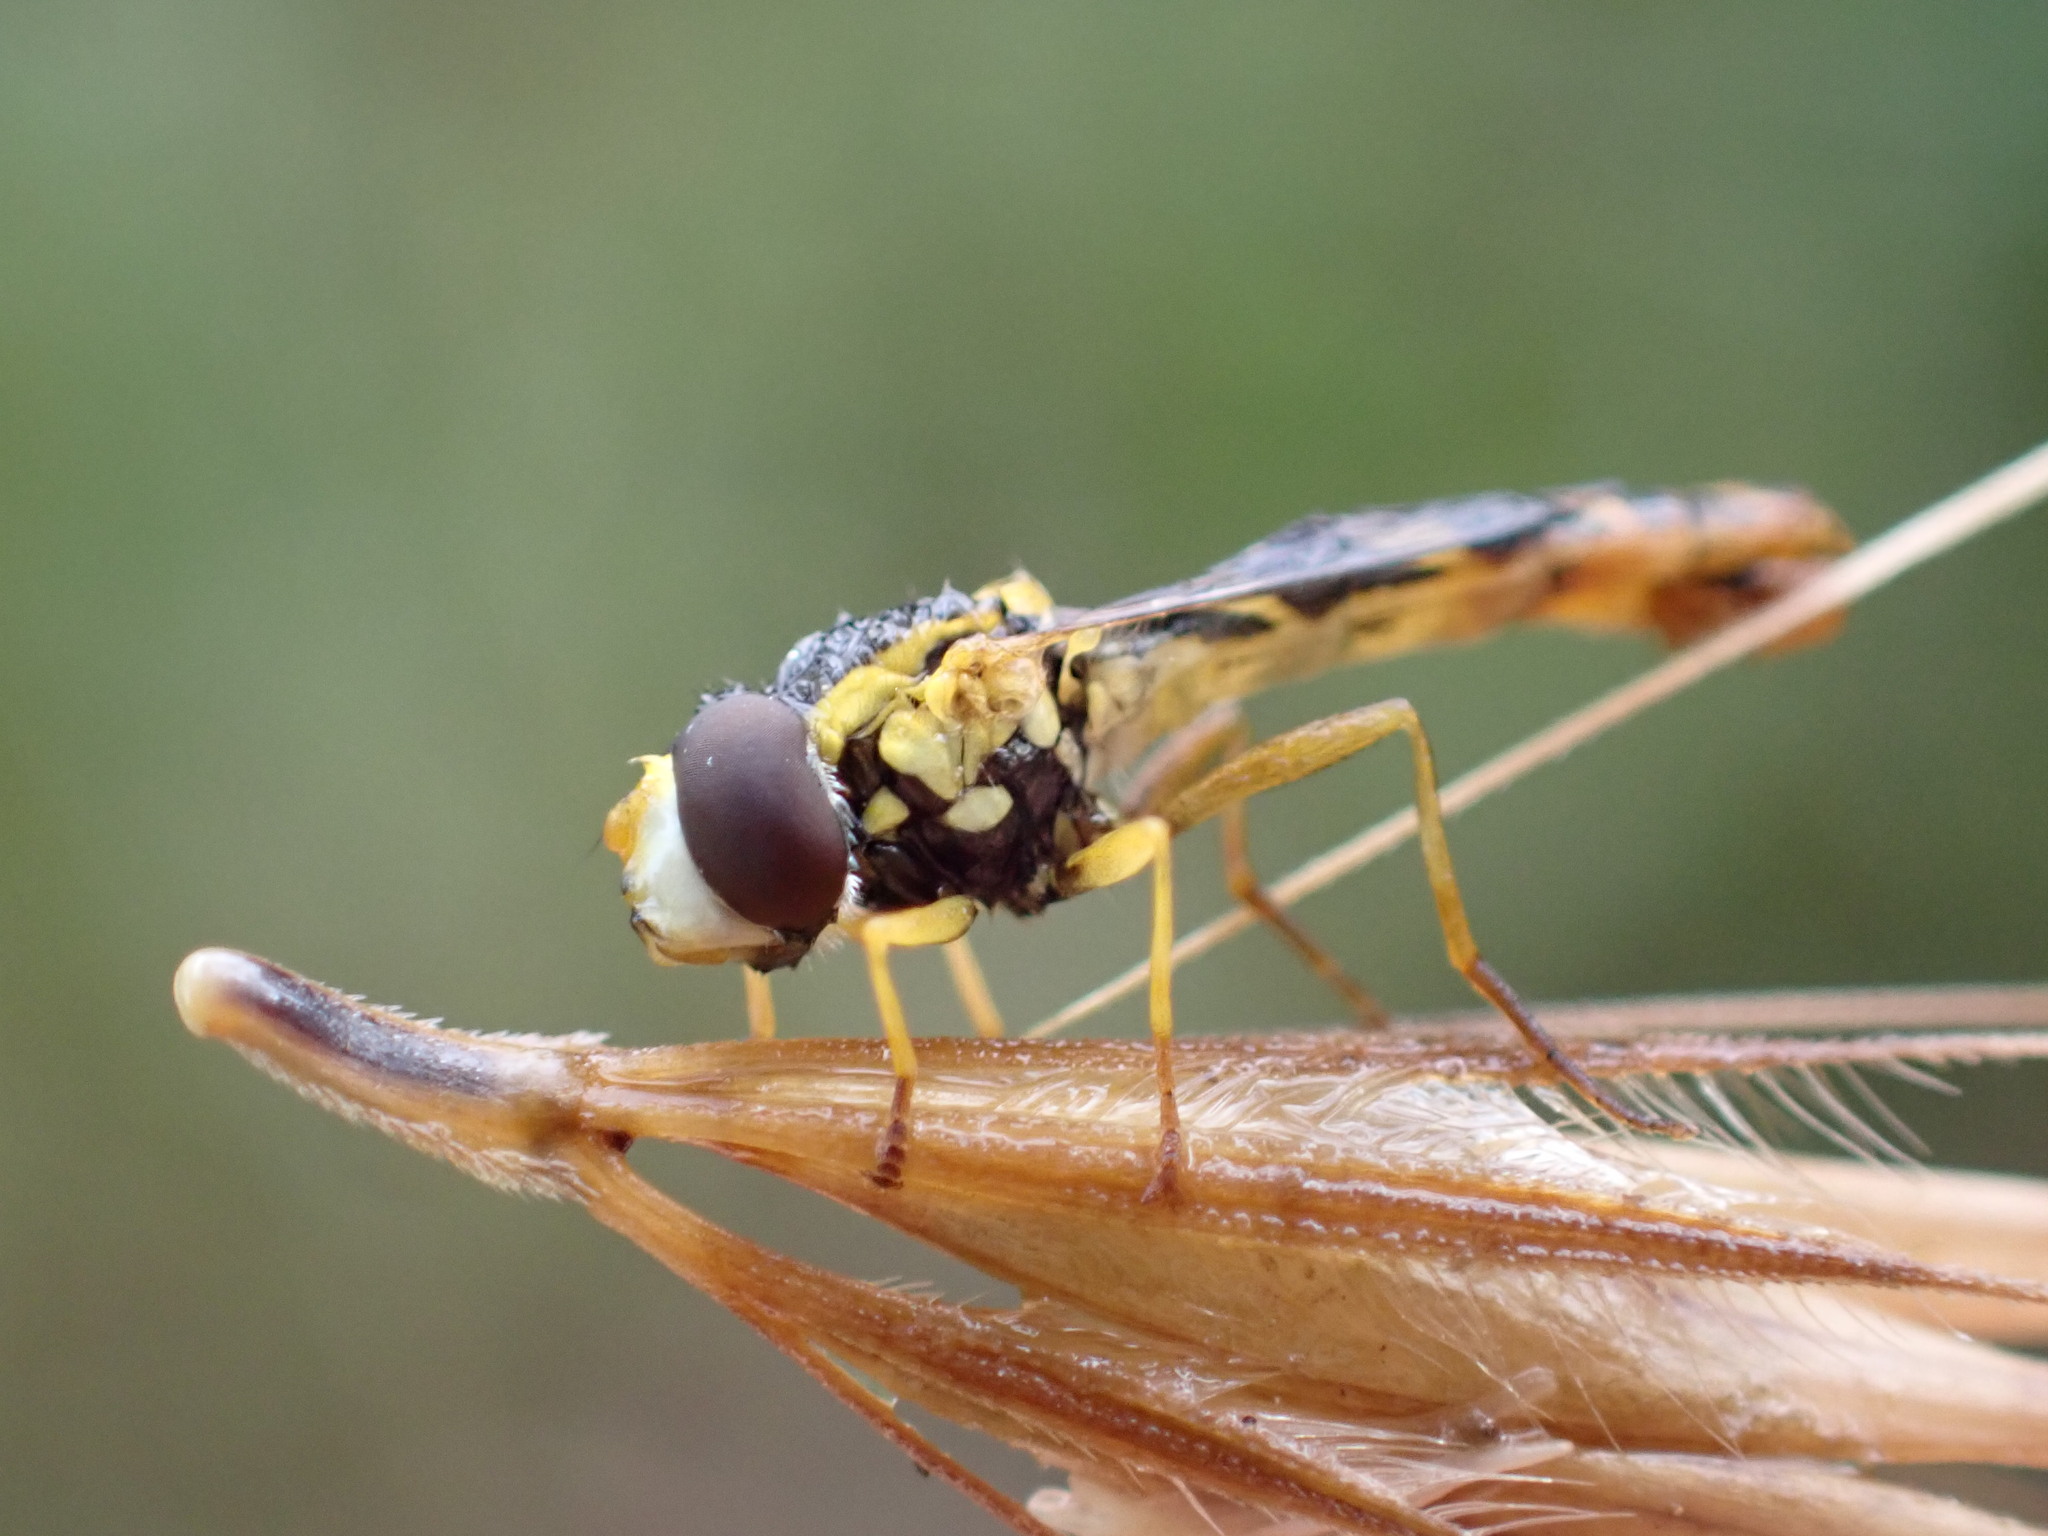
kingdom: Animalia
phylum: Arthropoda
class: Insecta
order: Diptera
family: Syrphidae
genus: Sphaerophoria
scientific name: Sphaerophoria scripta
